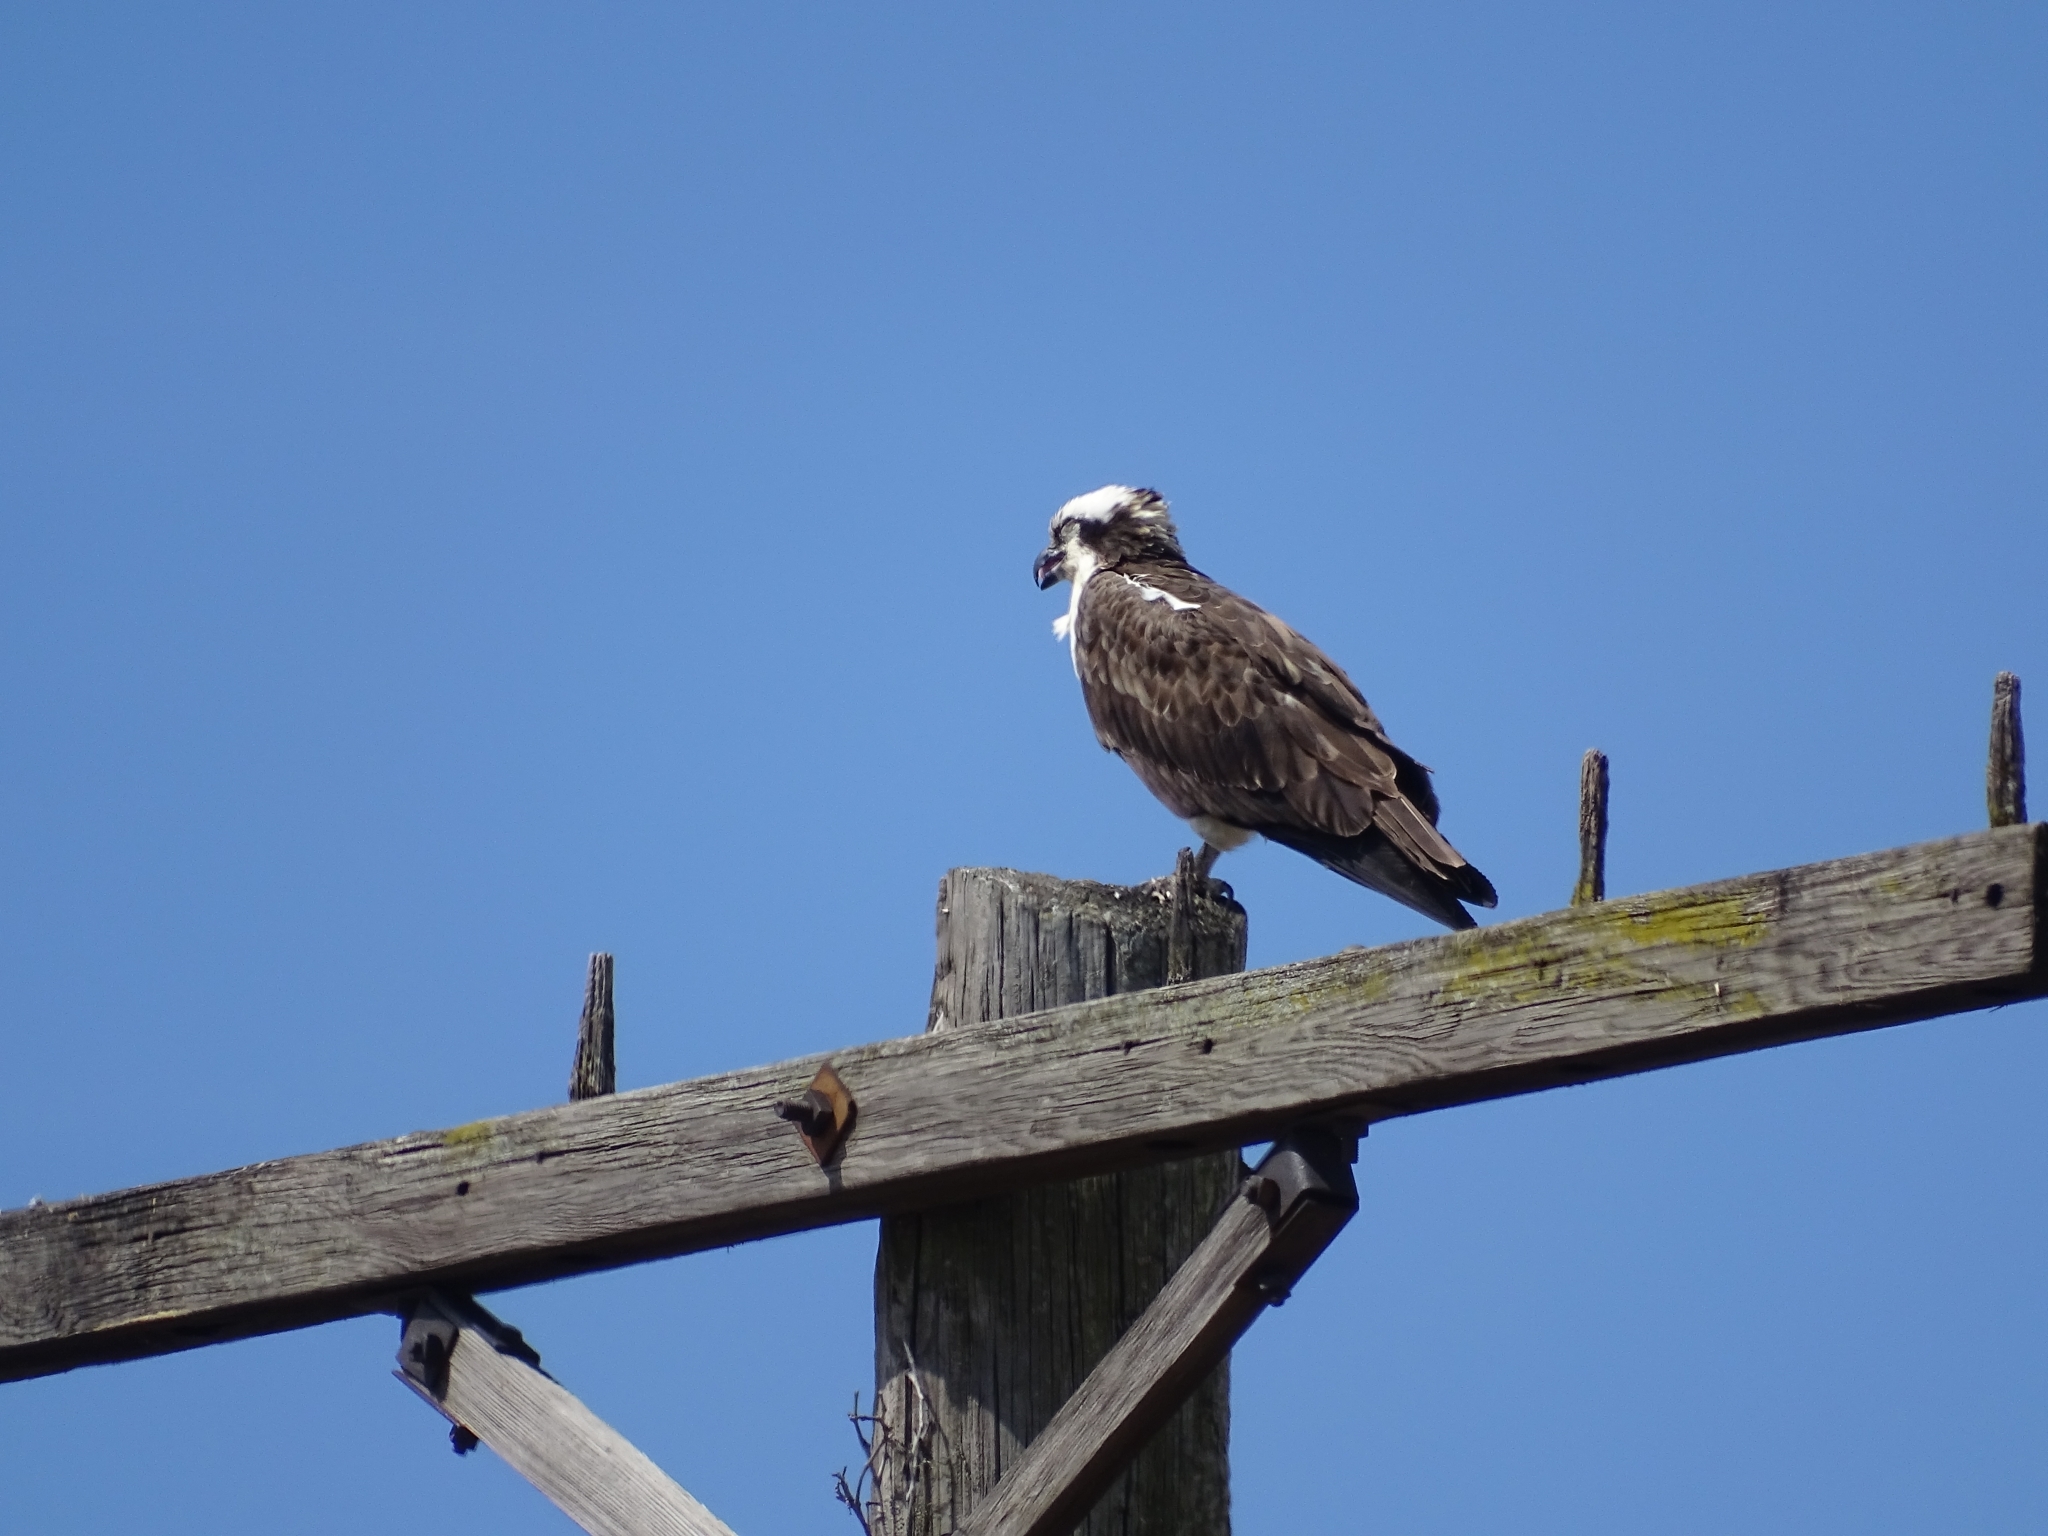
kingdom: Animalia
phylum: Chordata
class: Aves
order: Accipitriformes
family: Pandionidae
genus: Pandion
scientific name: Pandion haliaetus
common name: Osprey
